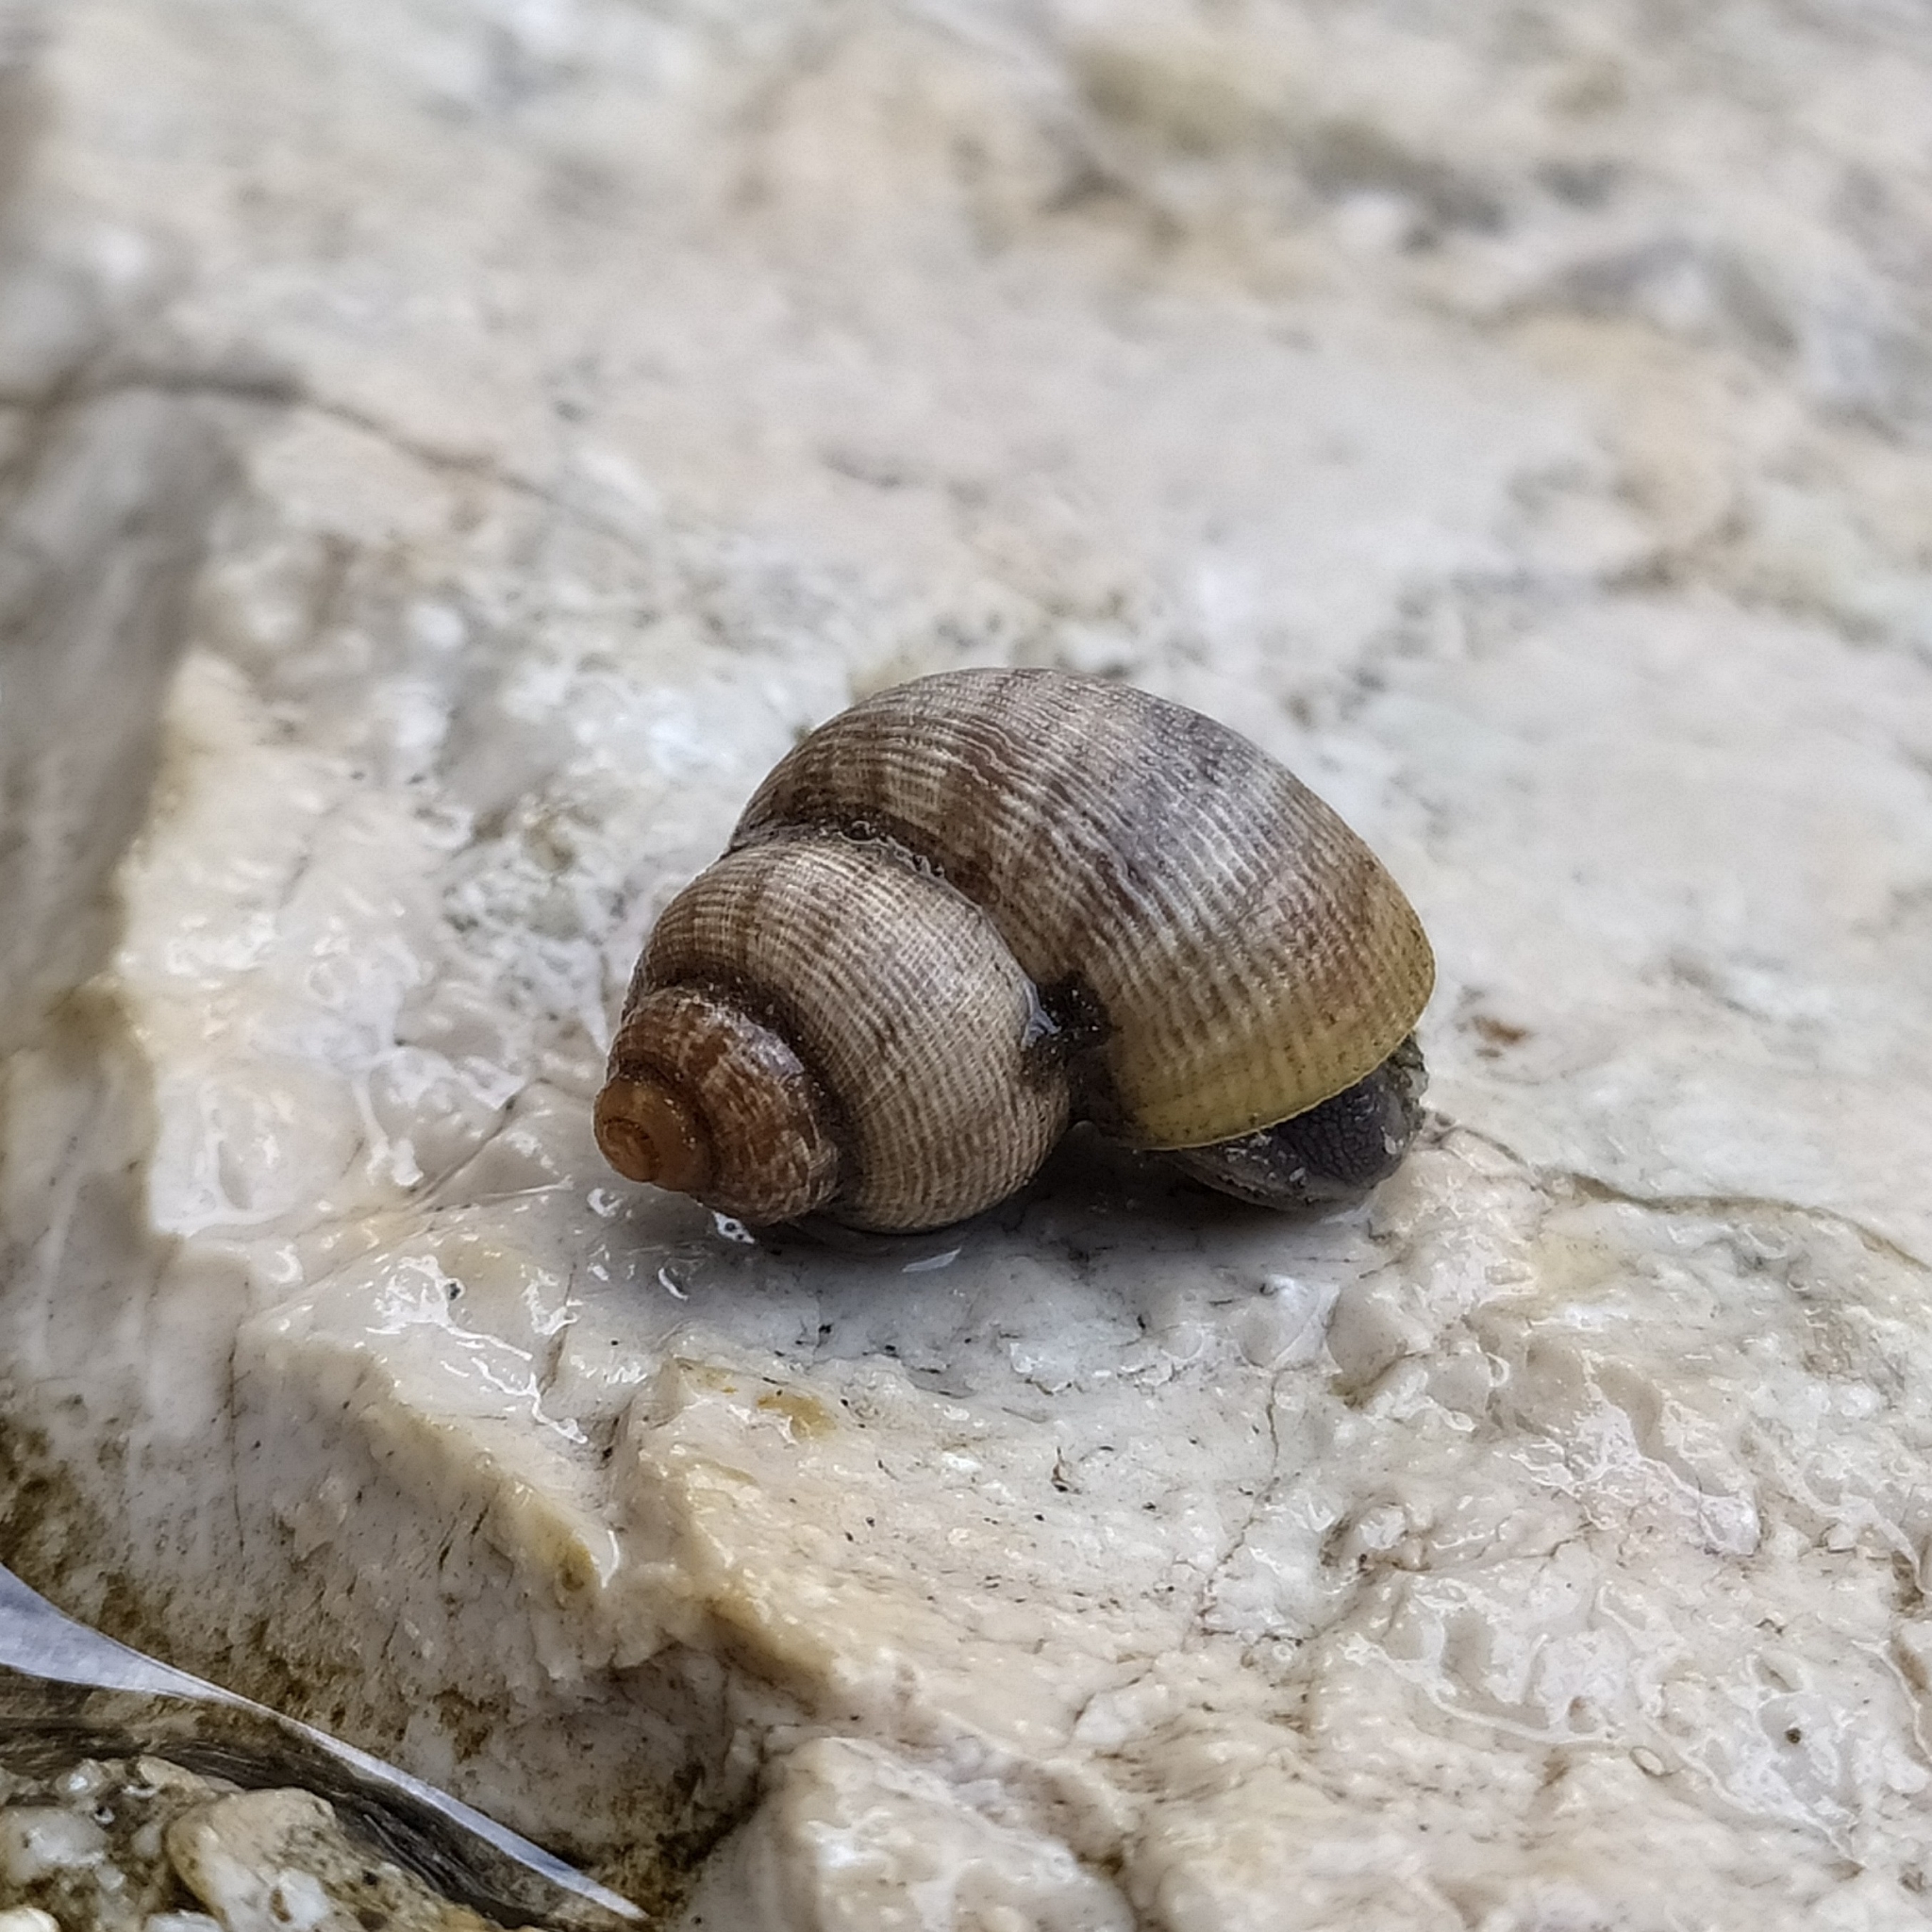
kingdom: Animalia
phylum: Mollusca
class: Gastropoda
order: Littorinimorpha
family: Pomatiidae
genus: Pomatias
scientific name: Pomatias elegans
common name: Red-mouthed snail
